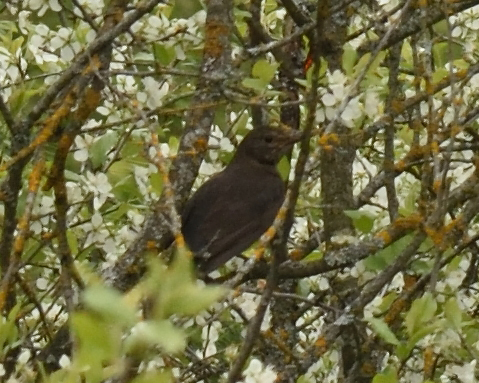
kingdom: Animalia
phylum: Chordata
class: Aves
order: Passeriformes
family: Turdidae
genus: Turdus
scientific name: Turdus merula
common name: Common blackbird
